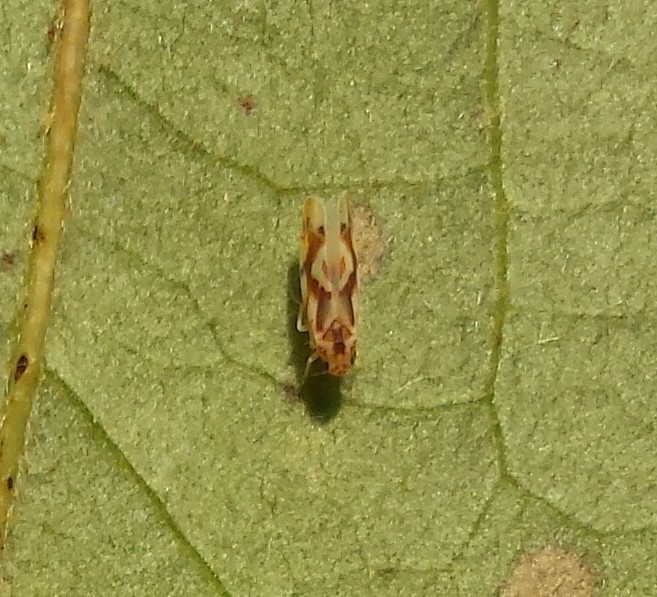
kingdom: Animalia
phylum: Arthropoda
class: Insecta
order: Hemiptera
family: Cicadellidae
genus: Erythroneura
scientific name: Erythroneura kanwakae
